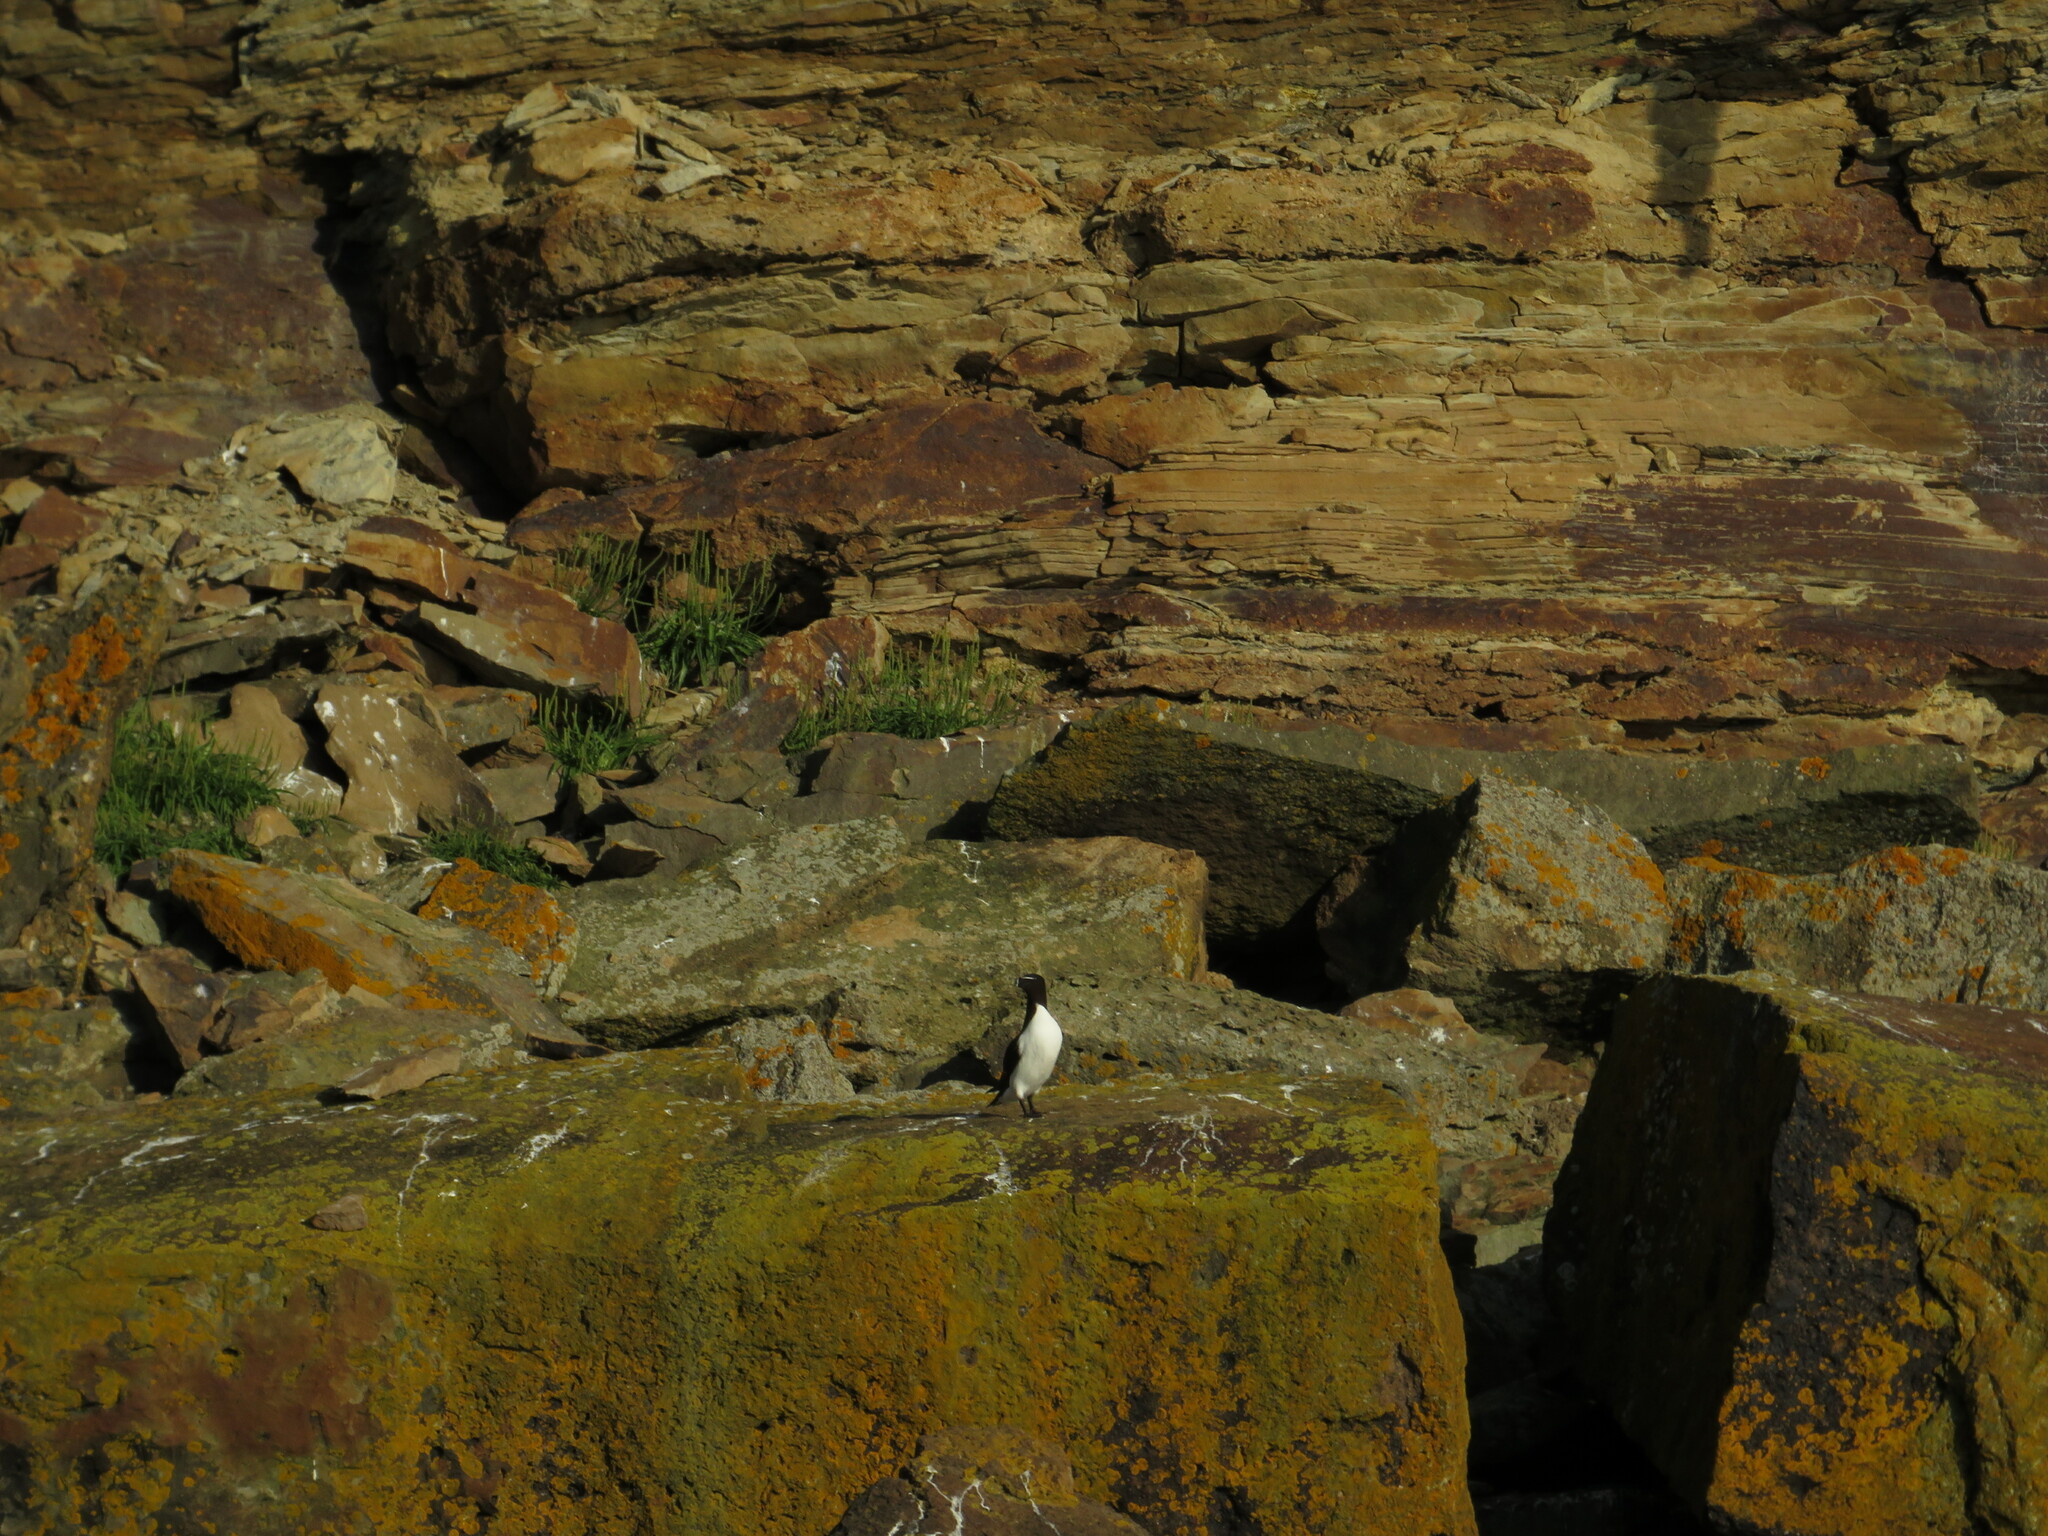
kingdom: Animalia
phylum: Chordata
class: Aves
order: Charadriiformes
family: Alcidae
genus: Alca
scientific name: Alca torda
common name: Razorbill
